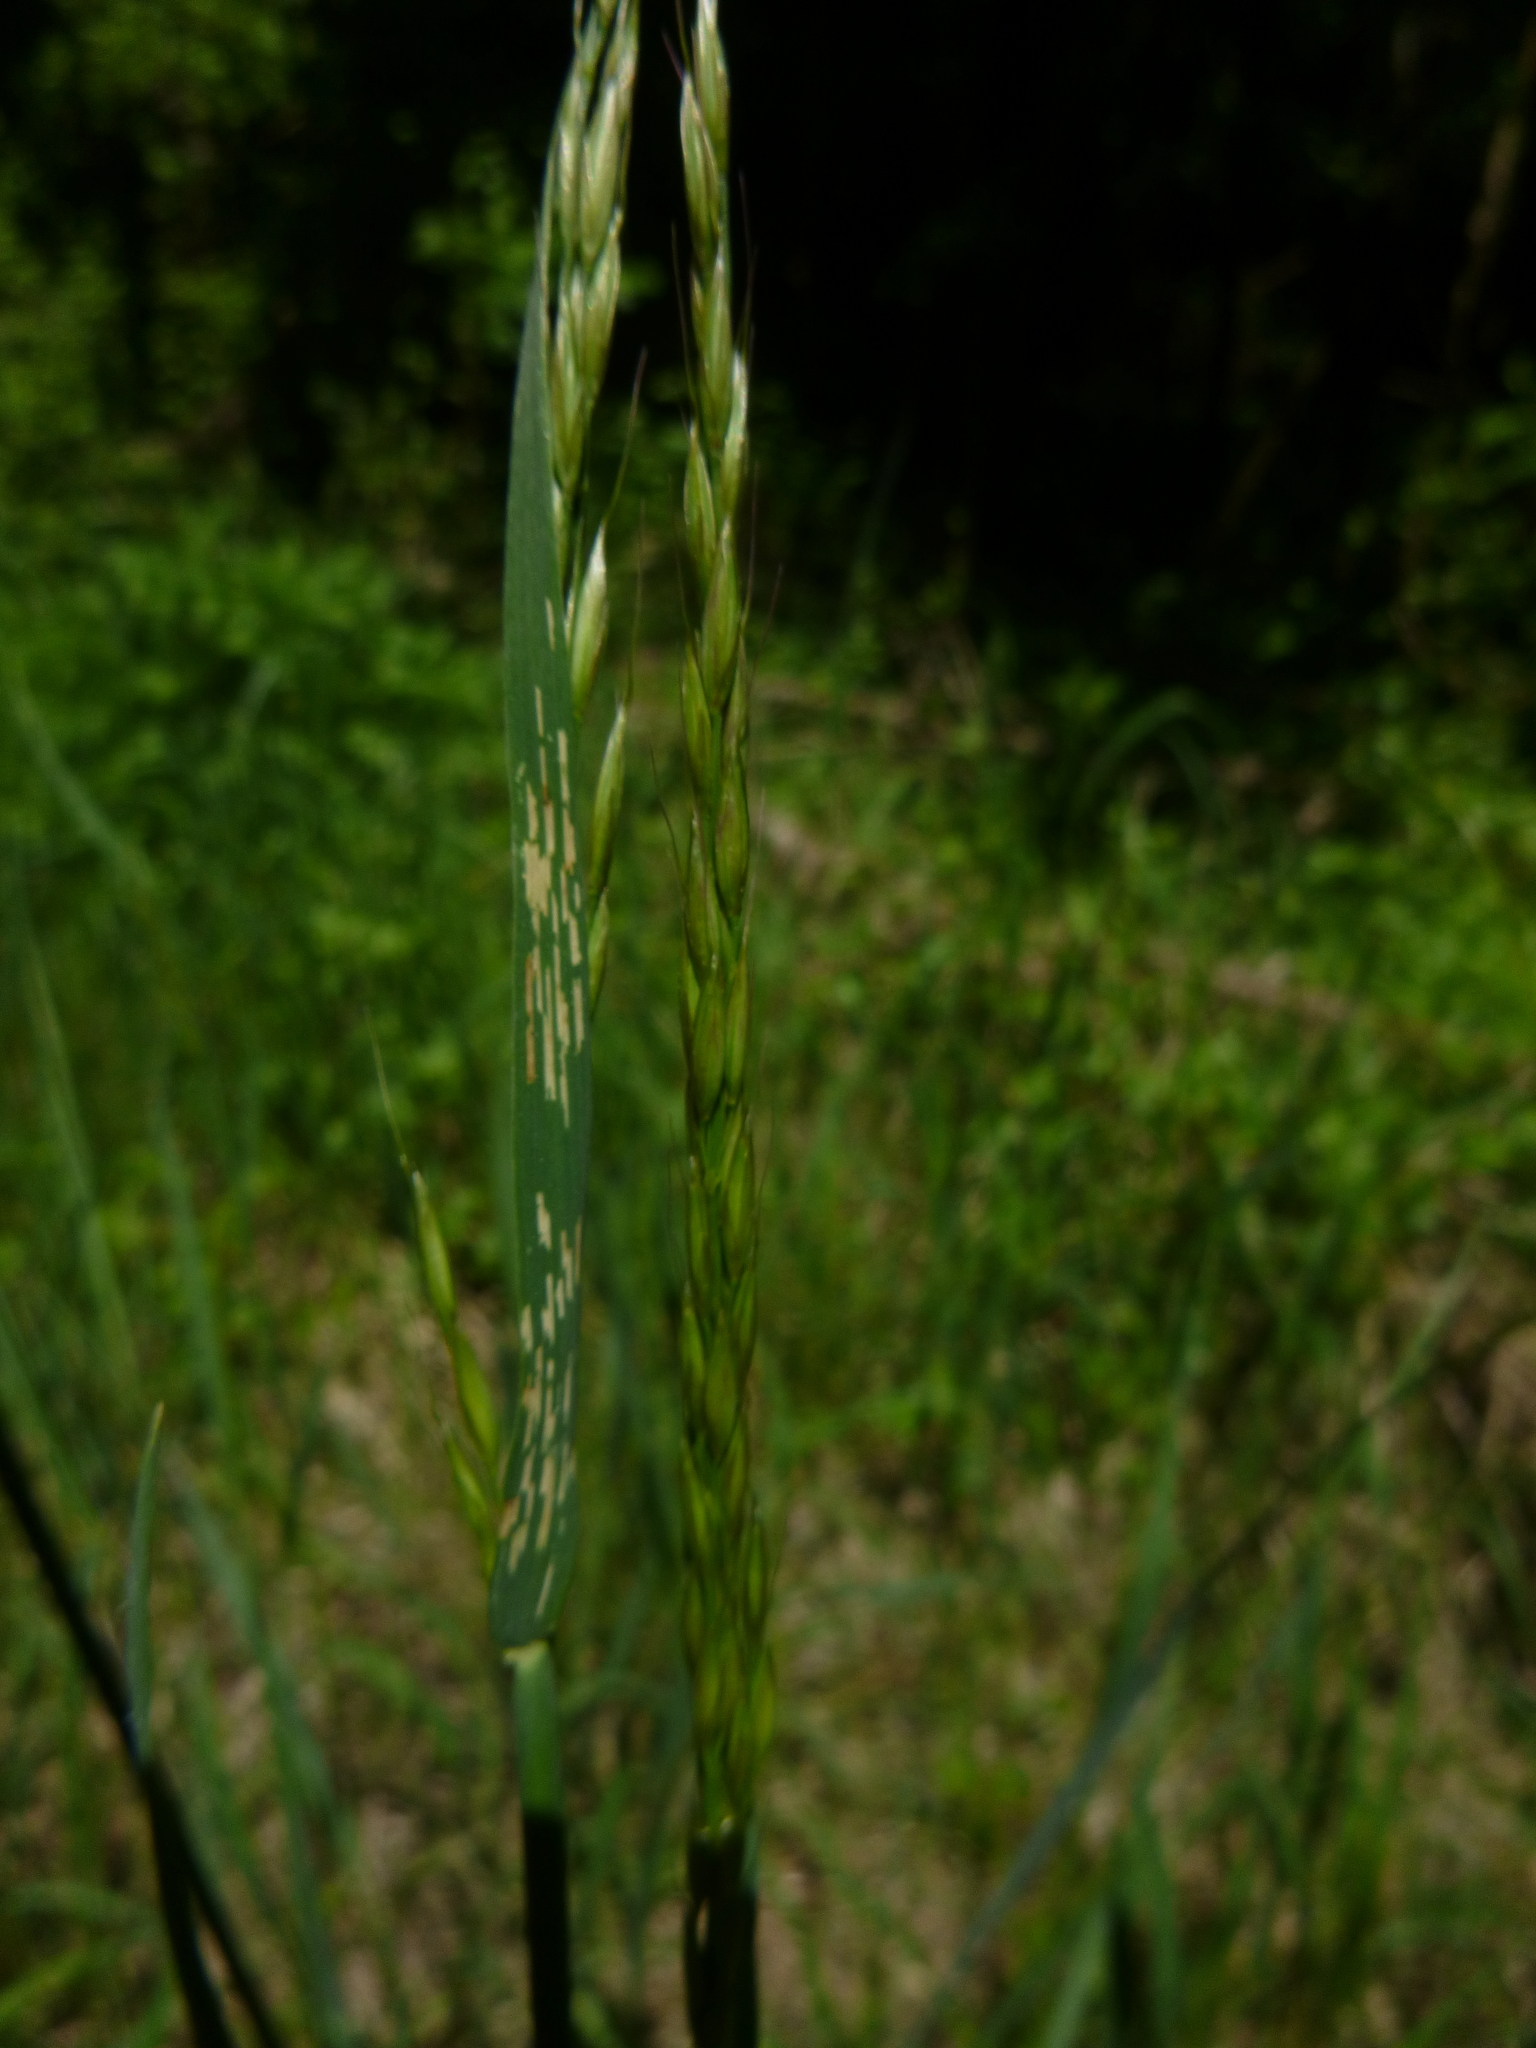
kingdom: Plantae
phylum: Tracheophyta
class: Liliopsida
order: Poales
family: Poaceae
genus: Arrhenatherum
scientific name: Arrhenatherum elatius
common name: Tall oatgrass
